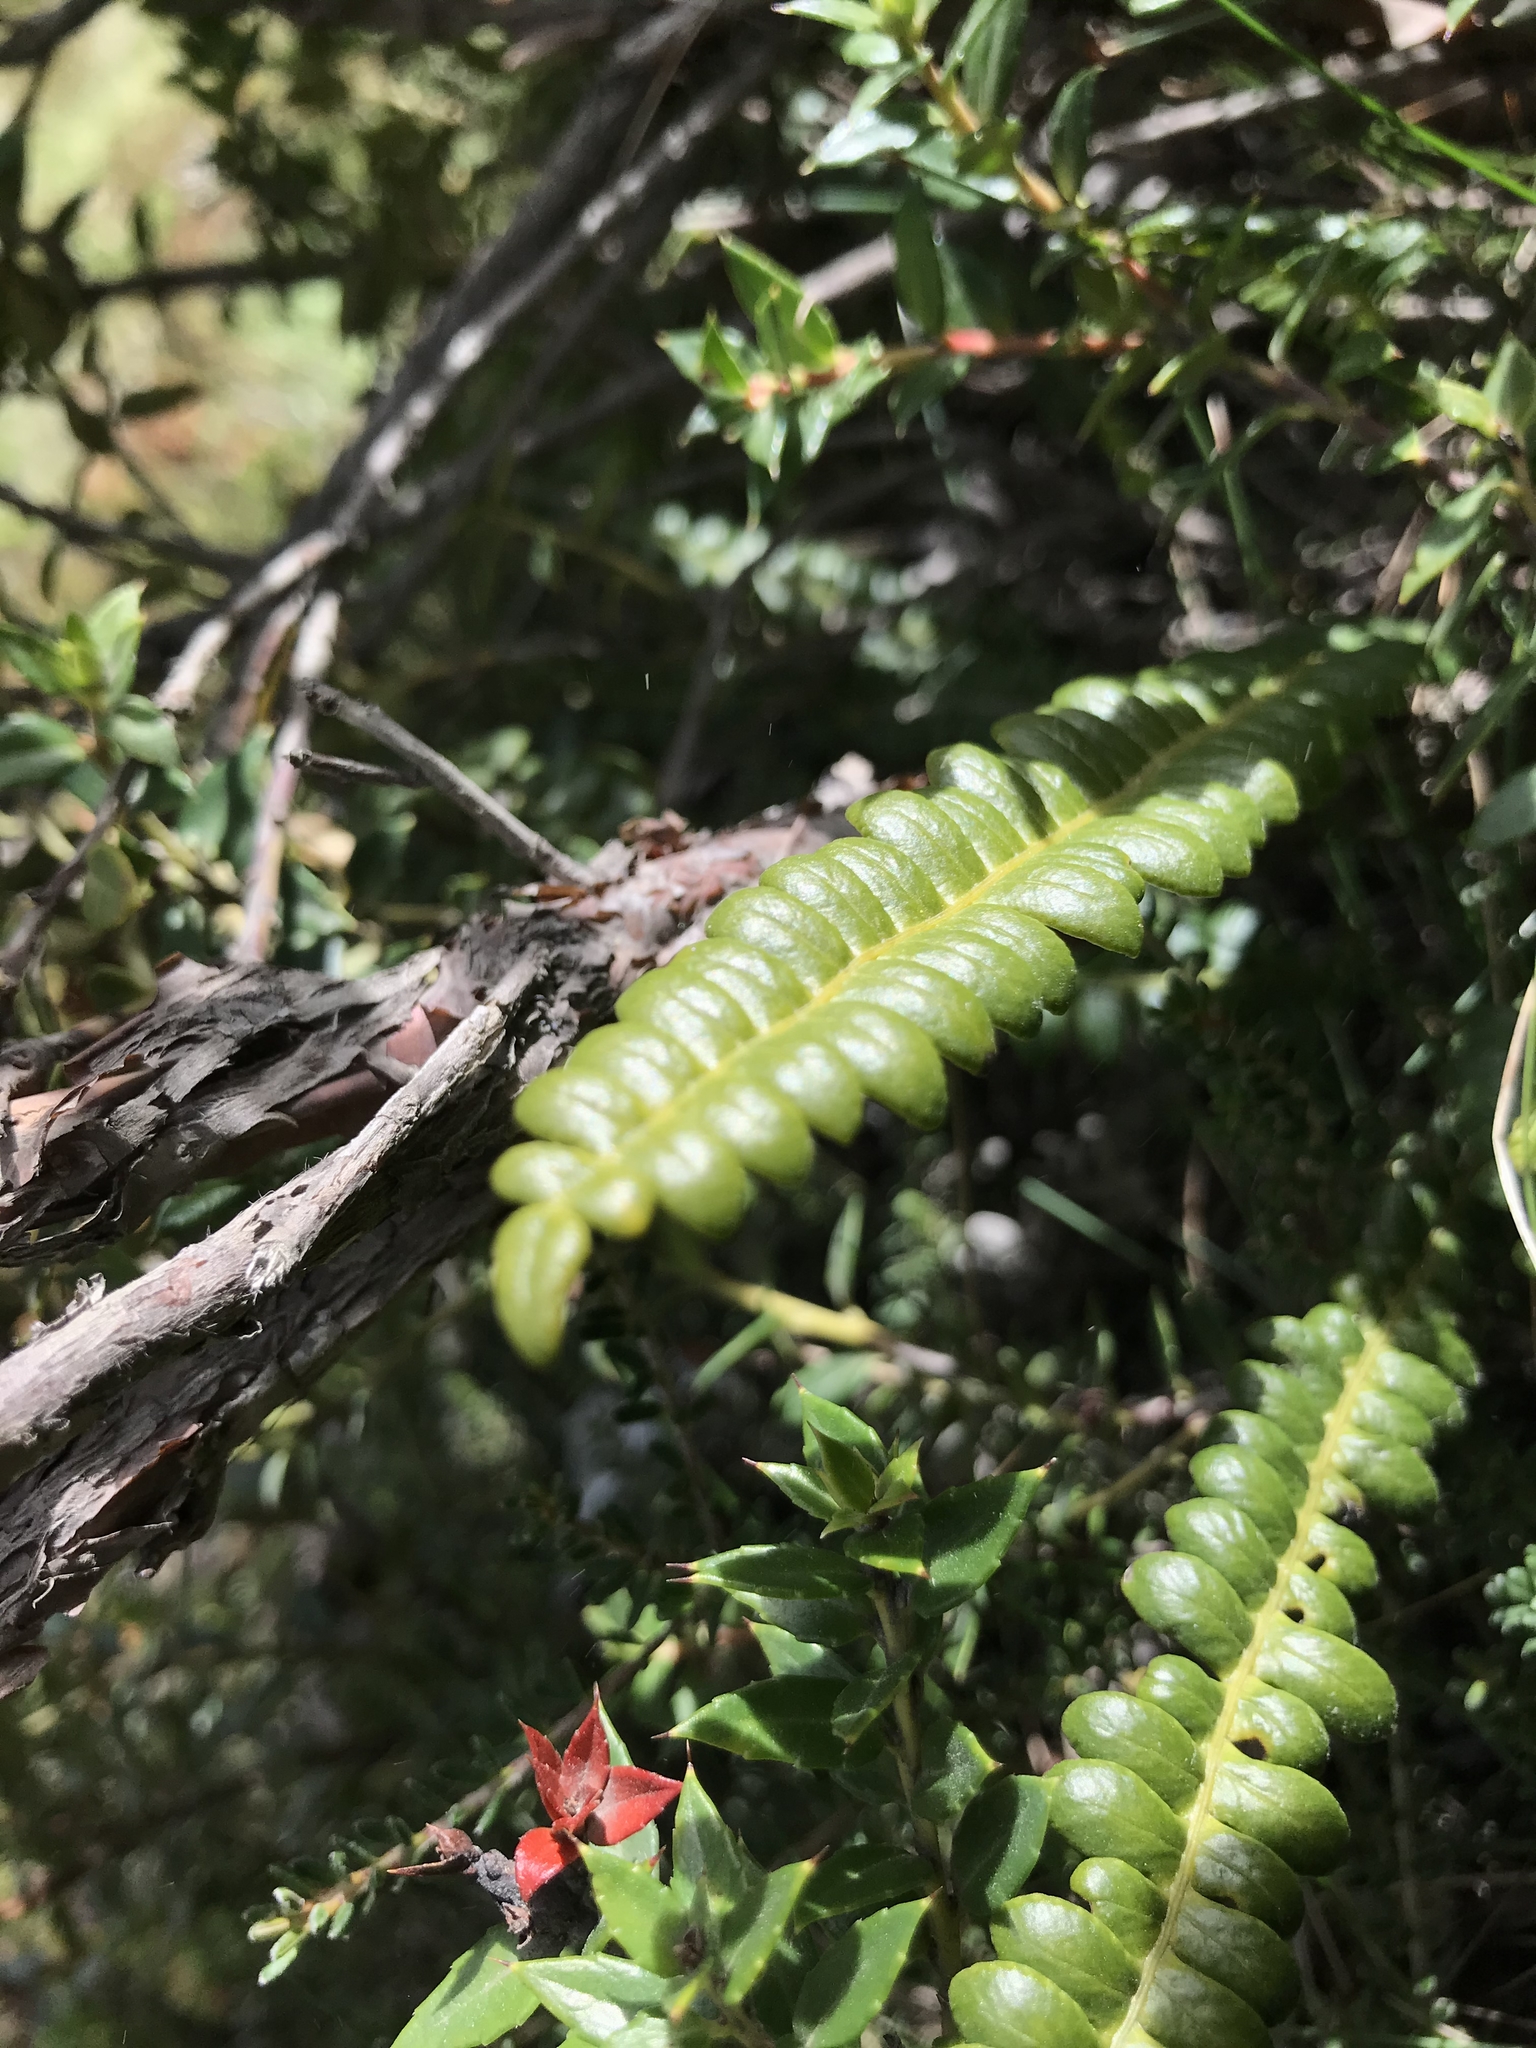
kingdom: Plantae
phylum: Tracheophyta
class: Polypodiopsida
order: Polypodiales
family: Blechnaceae
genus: Austroblechnum
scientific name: Austroblechnum penna-marina
